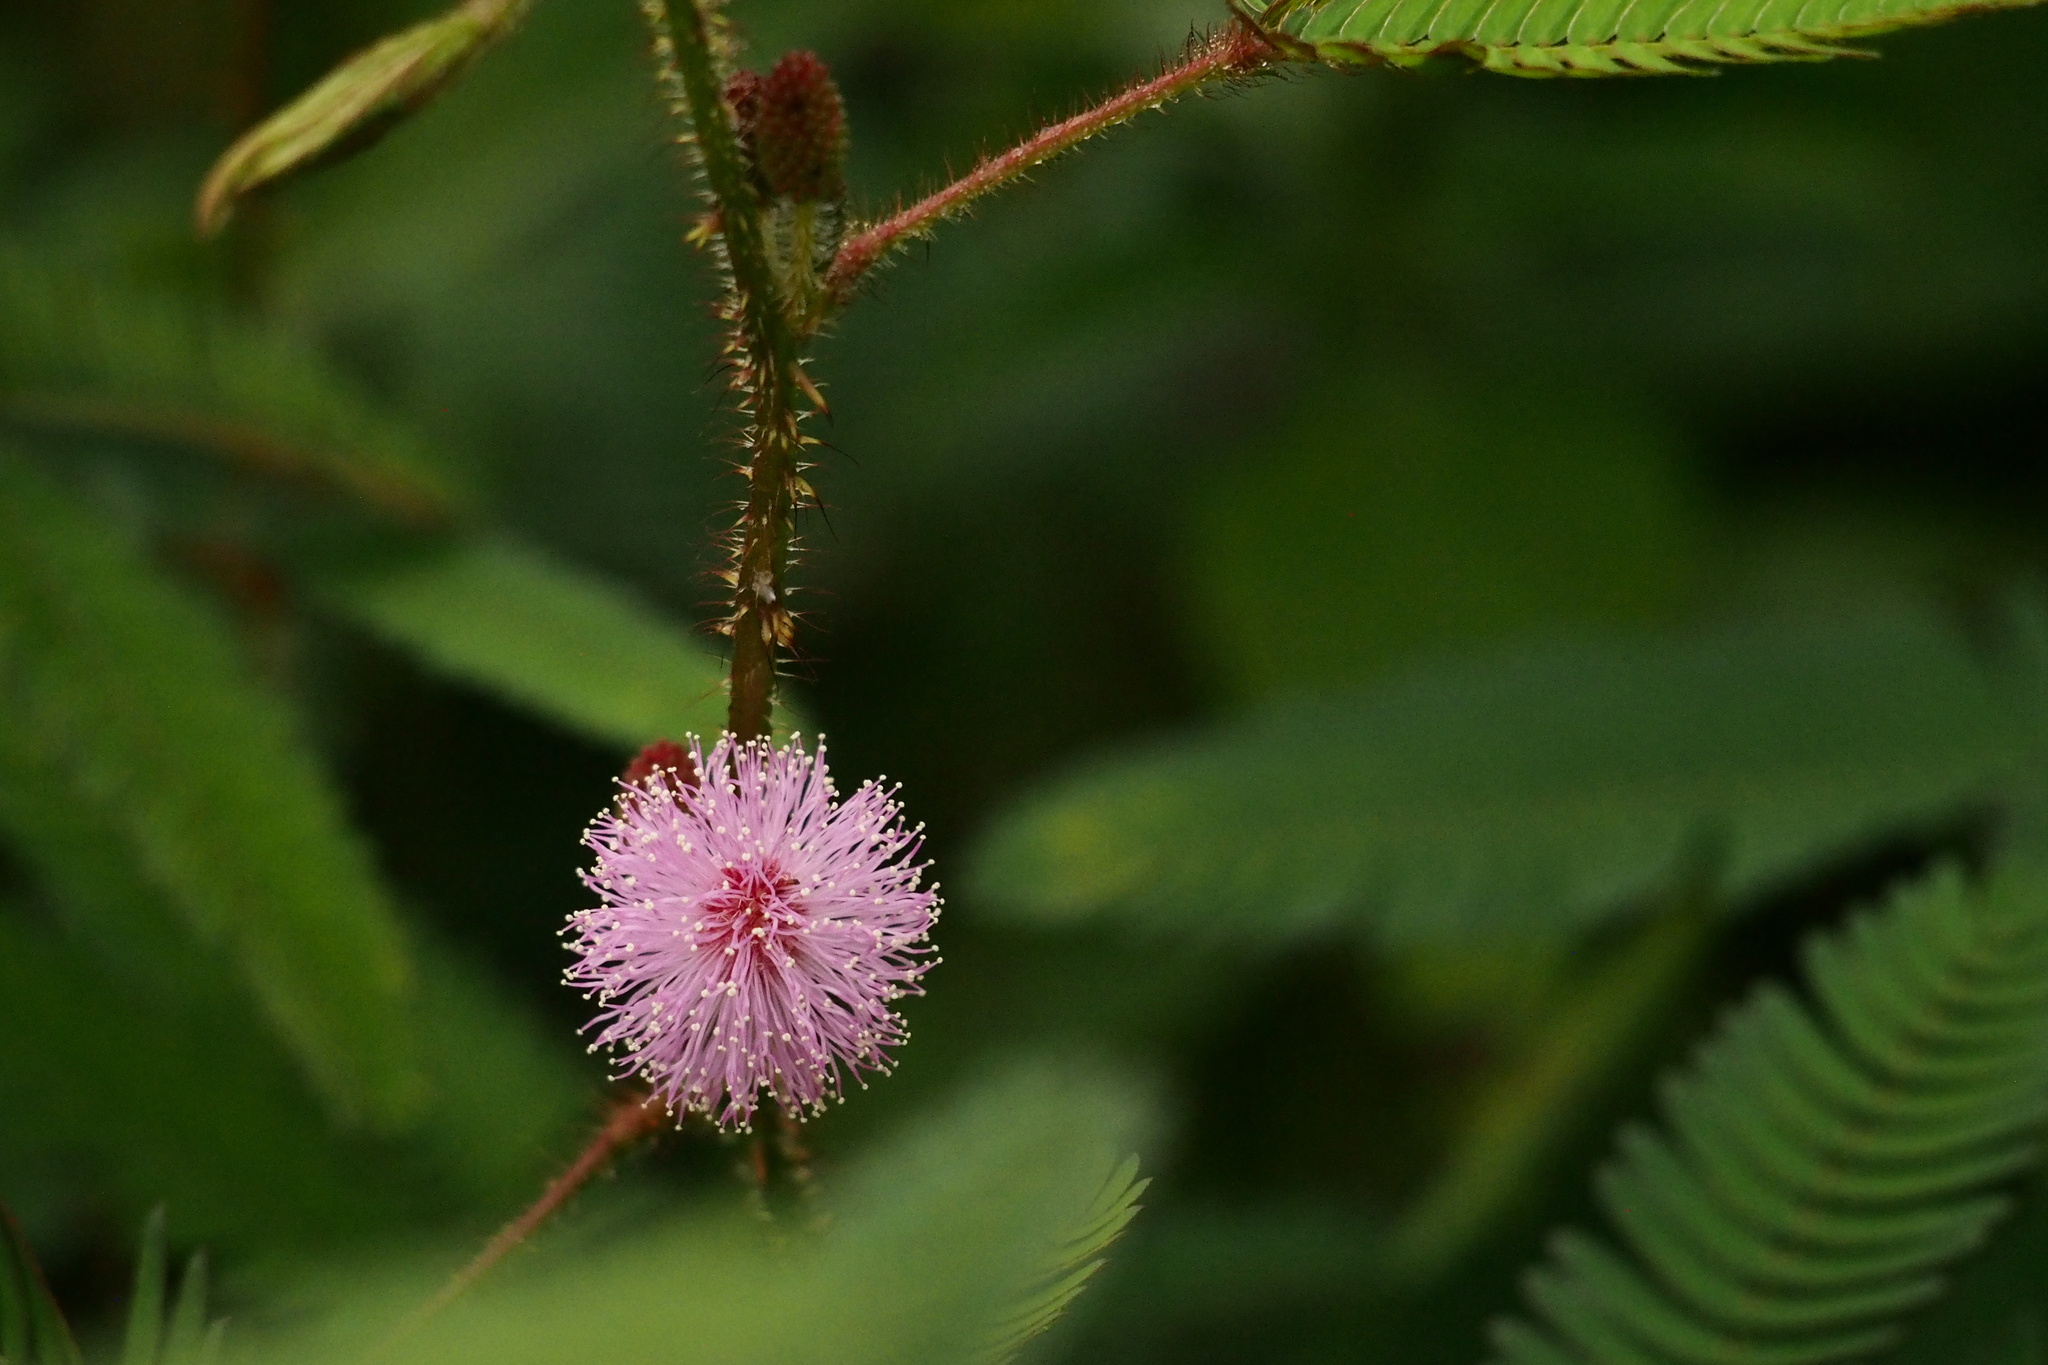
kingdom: Plantae
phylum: Tracheophyta
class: Magnoliopsida
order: Fabales
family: Fabaceae
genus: Mimosa
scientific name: Mimosa pudica
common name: Sensitive plant
